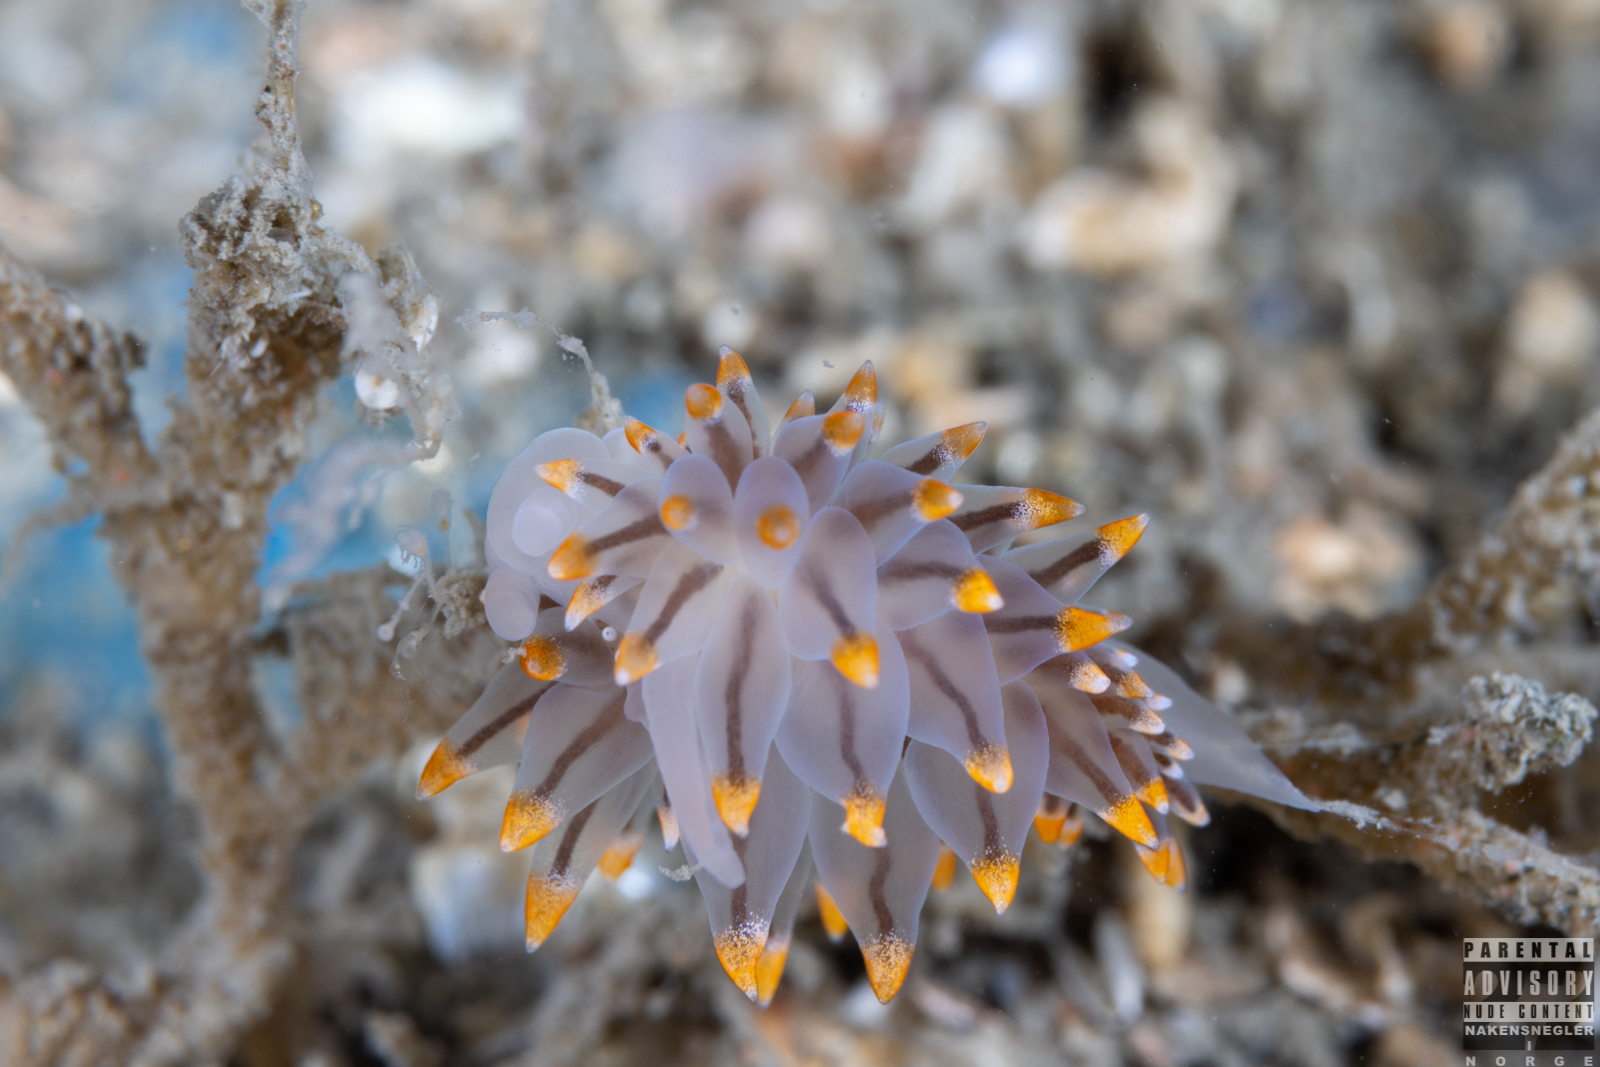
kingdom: Animalia
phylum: Mollusca
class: Gastropoda
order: Nudibranchia
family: Eubranchidae
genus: Eubranchus
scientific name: Eubranchus tricolor
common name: Painted balloon aeolis
